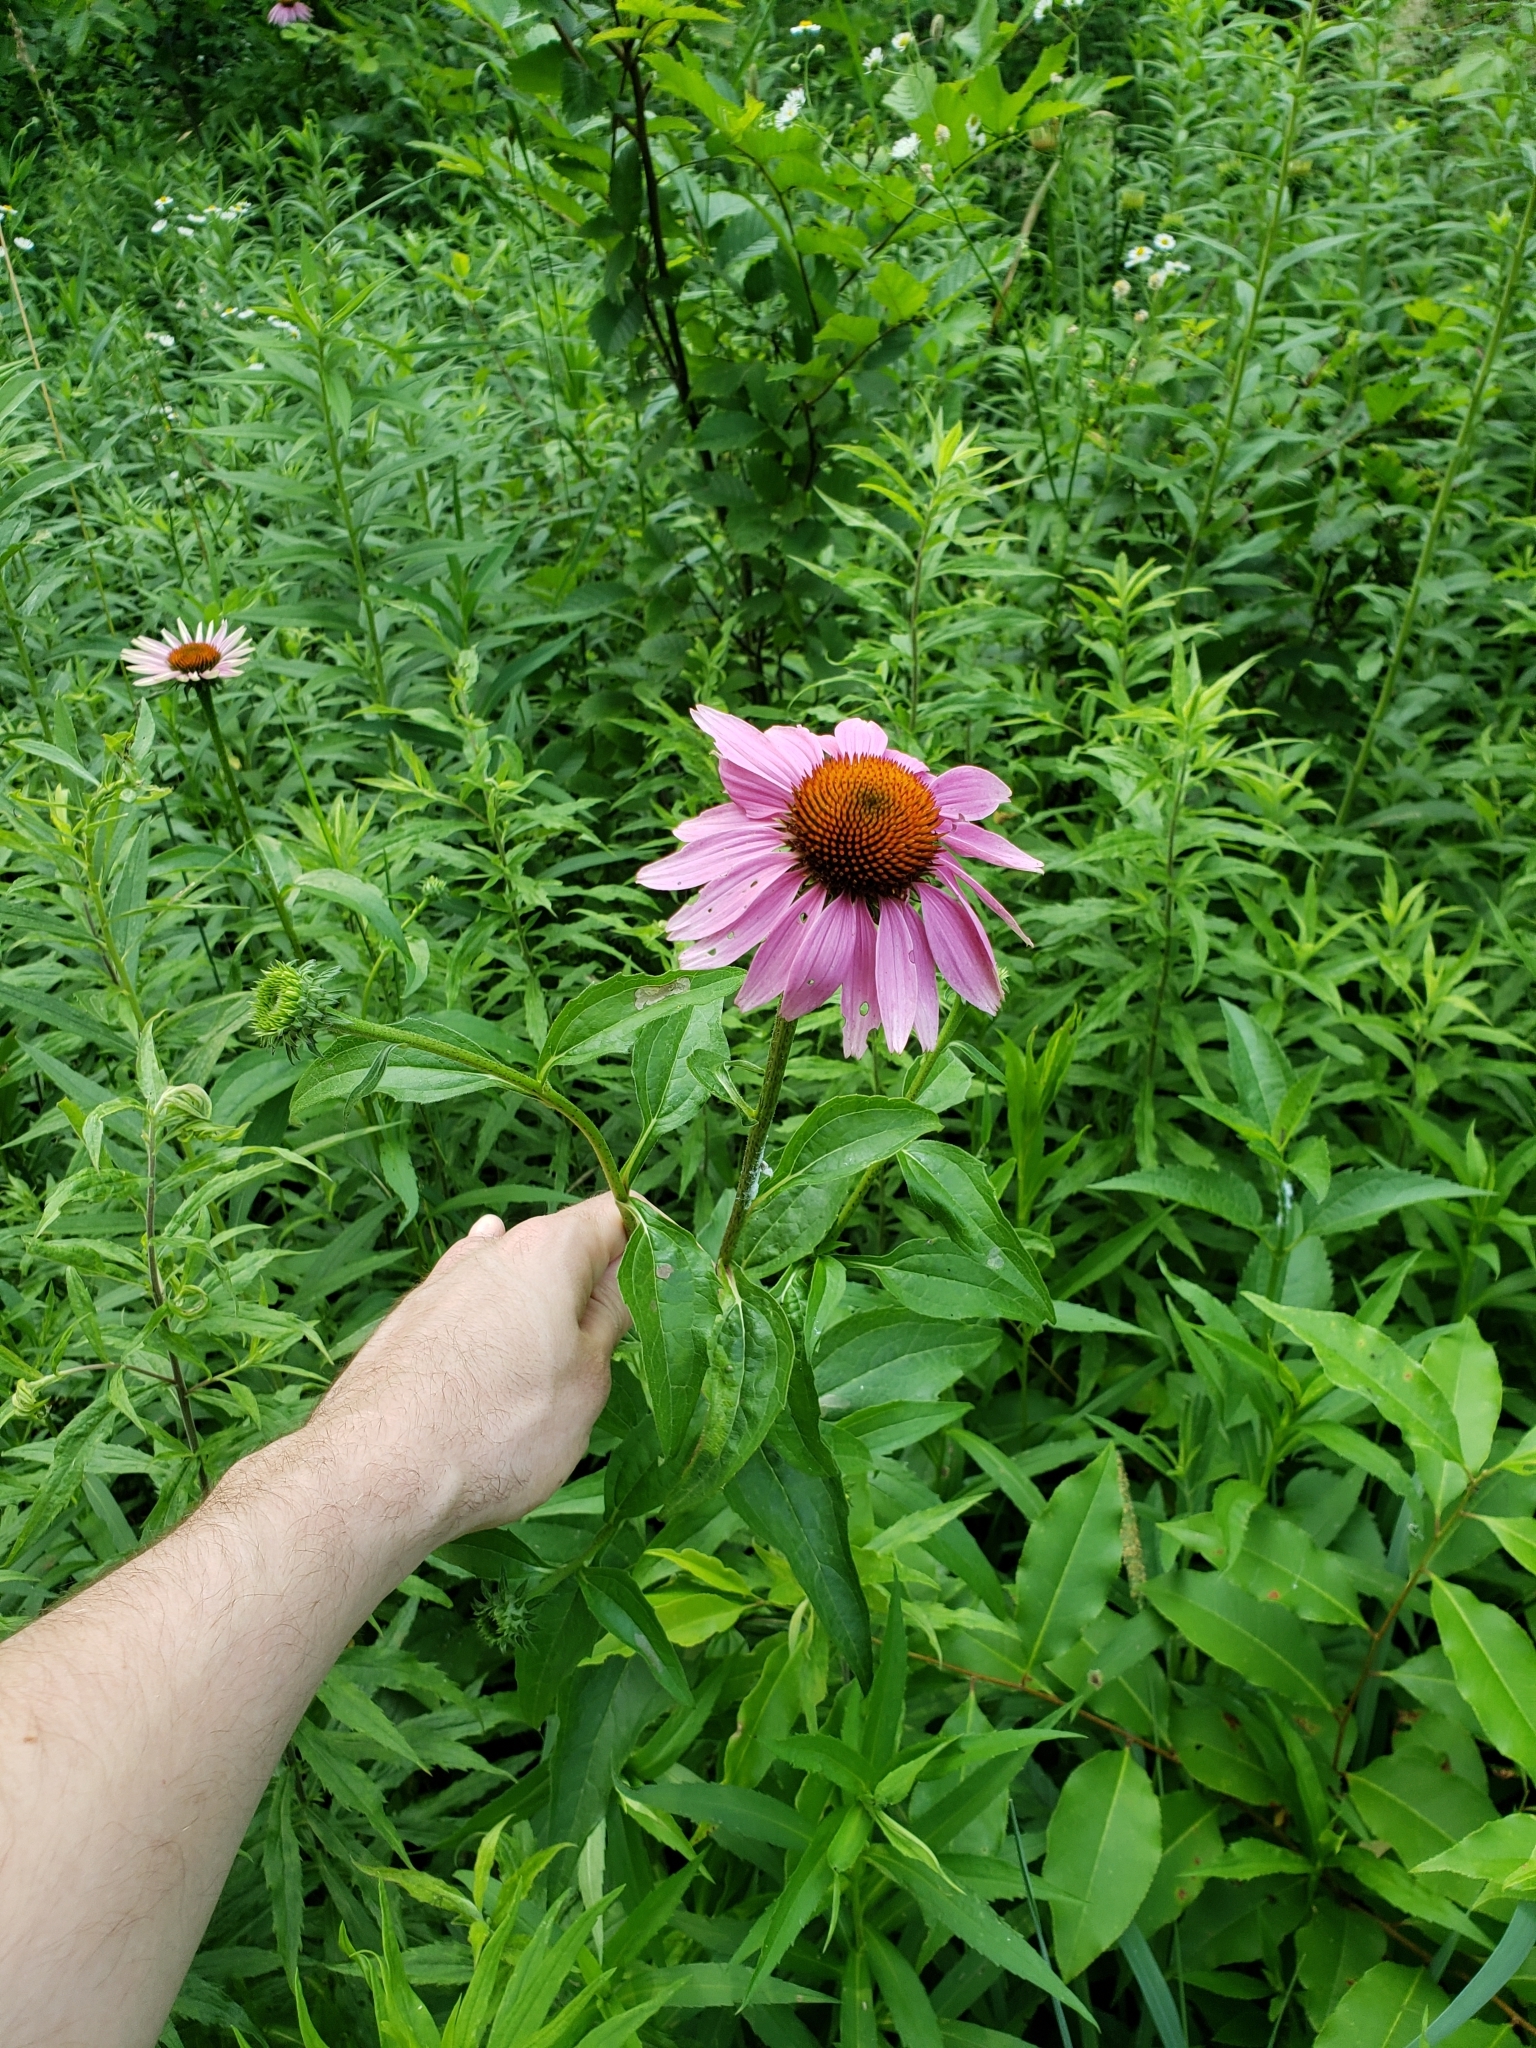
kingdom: Plantae
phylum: Tracheophyta
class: Magnoliopsida
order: Asterales
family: Asteraceae
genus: Echinacea
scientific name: Echinacea purpurea
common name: Broad-leaved purple coneflower
